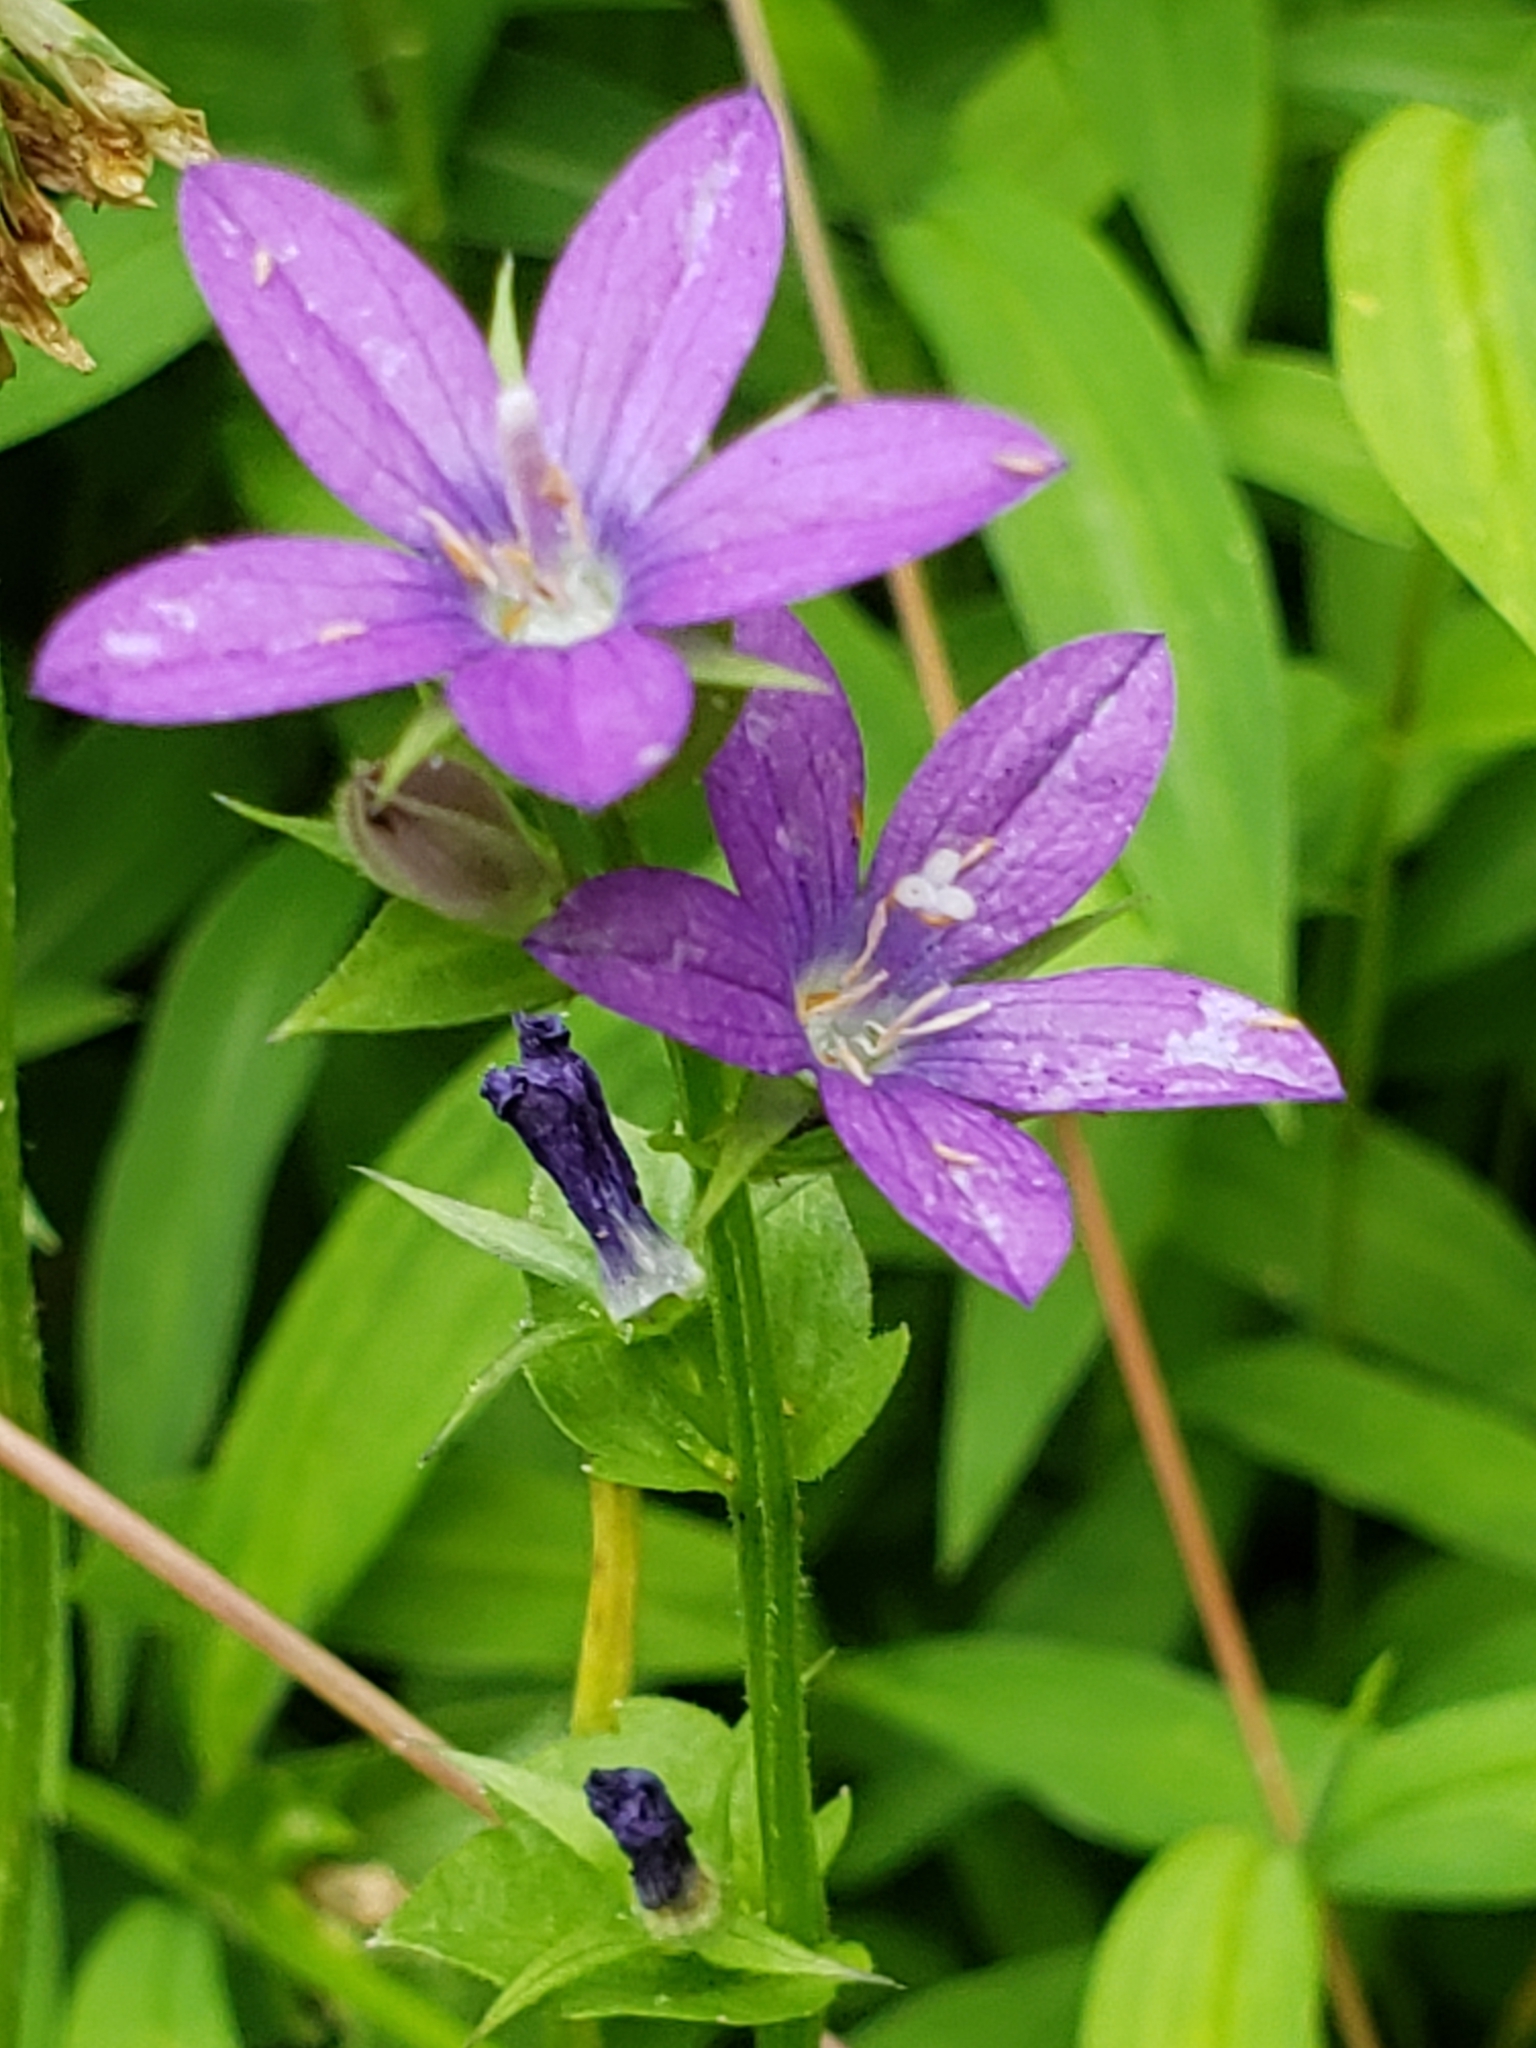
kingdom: Plantae
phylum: Tracheophyta
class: Magnoliopsida
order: Asterales
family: Campanulaceae
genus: Triodanis
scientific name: Triodanis perfoliata
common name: Clasping venus' looking-glass
